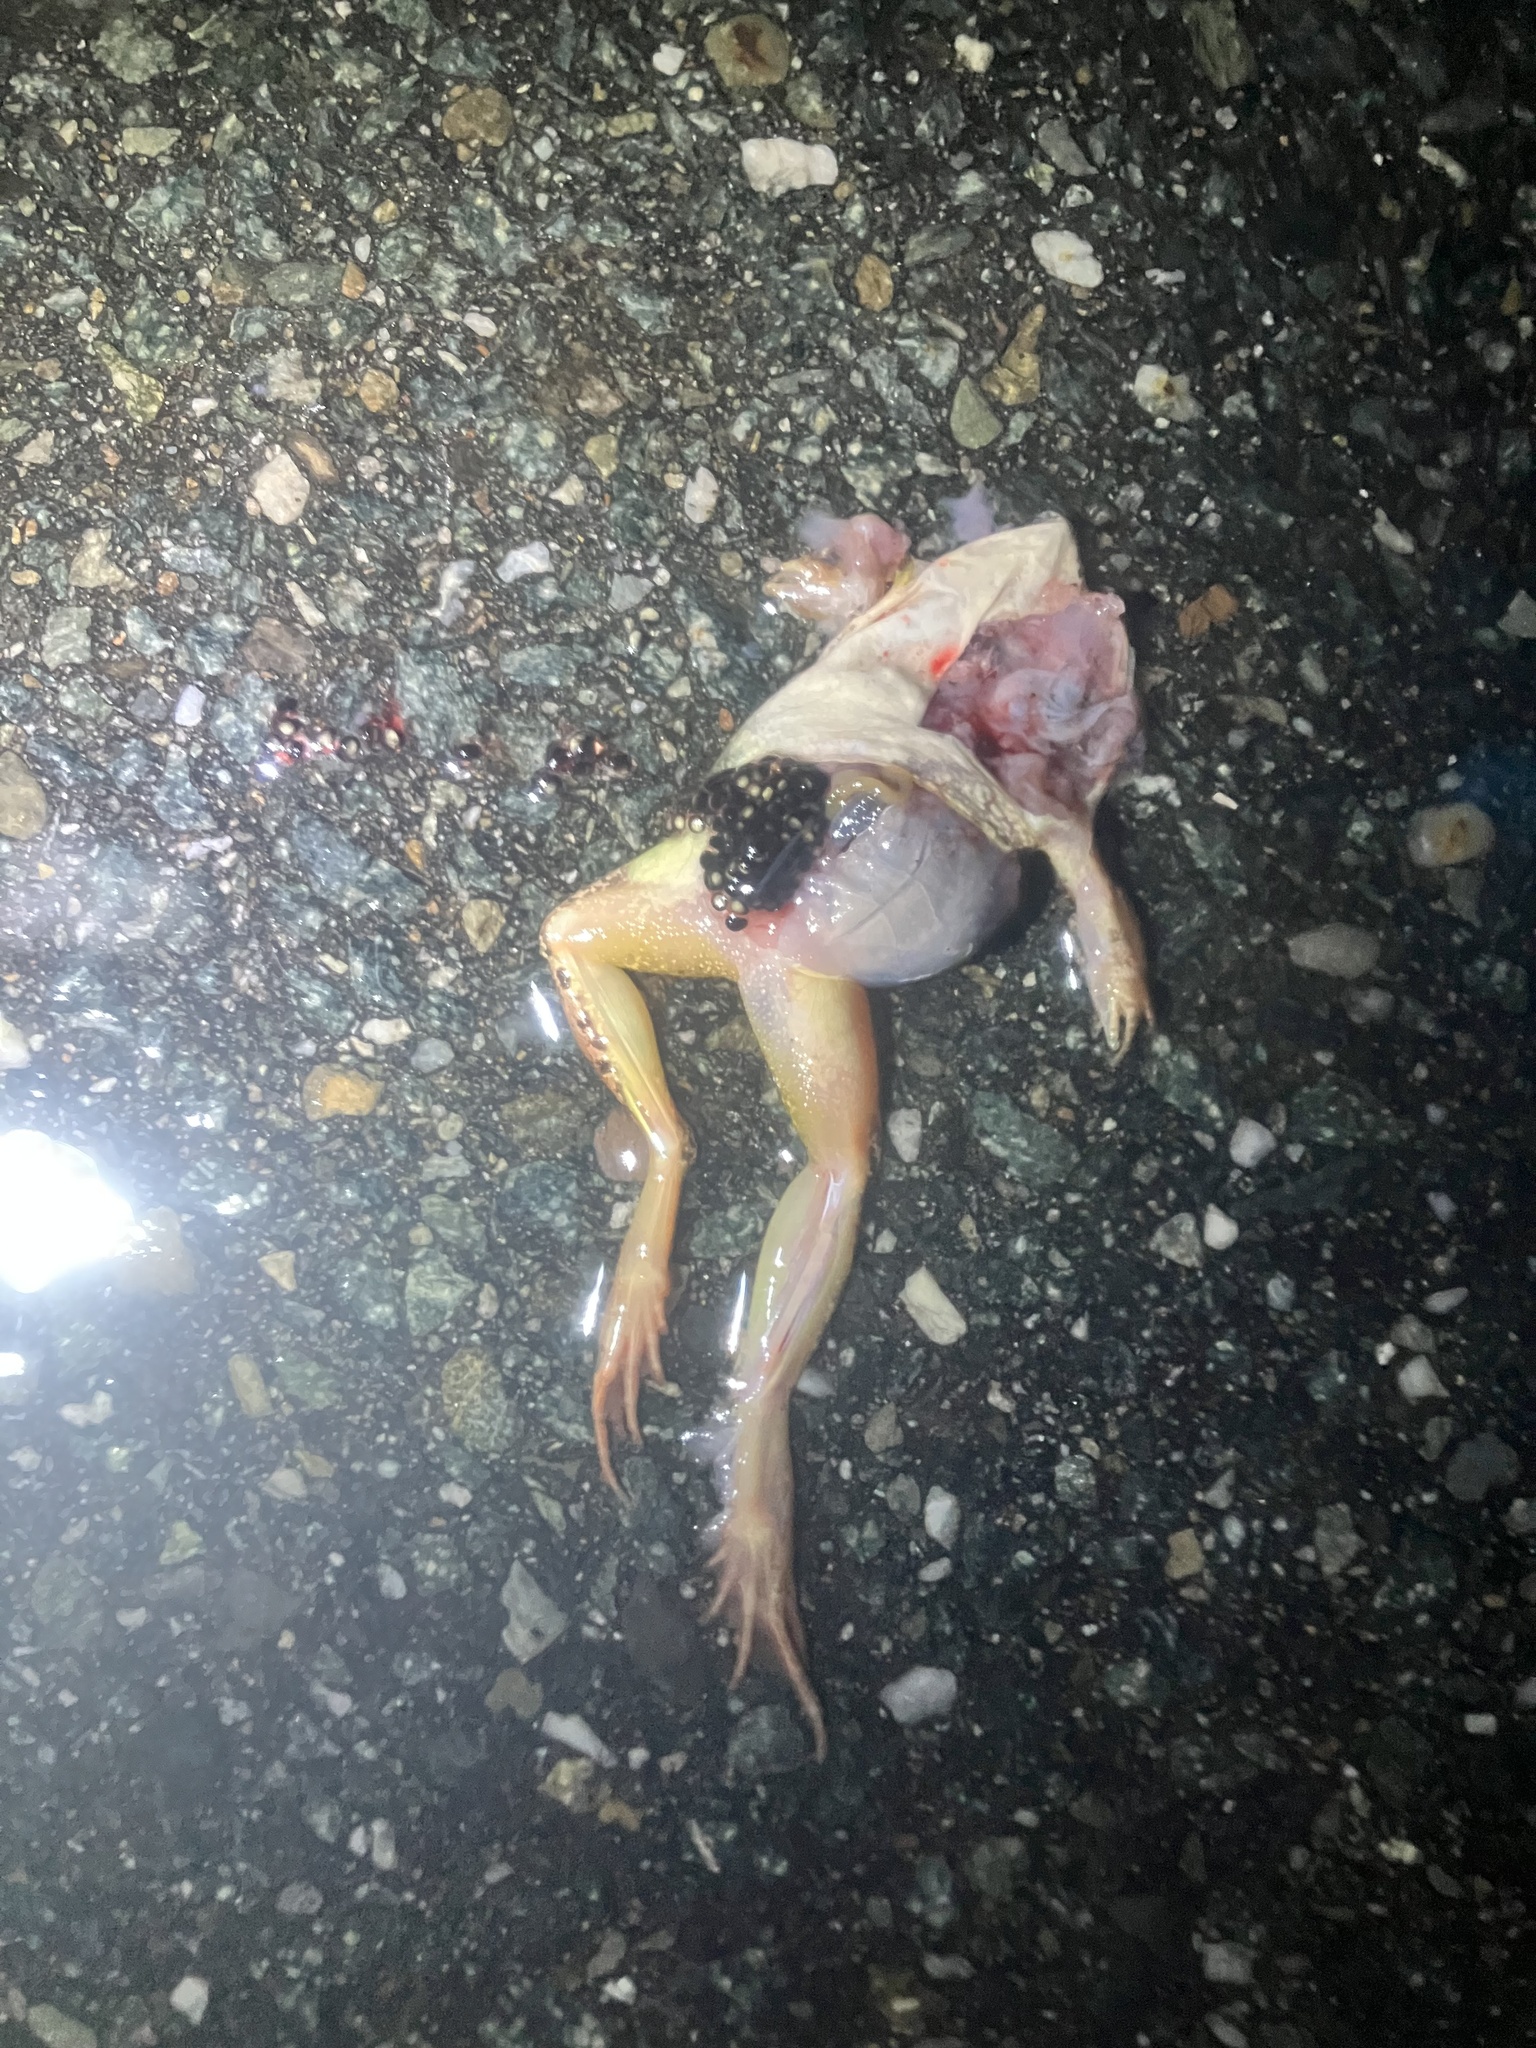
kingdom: Animalia
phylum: Chordata
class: Amphibia
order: Anura
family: Ranidae
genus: Lithobates
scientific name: Lithobates sylvaticus
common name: Wood frog
